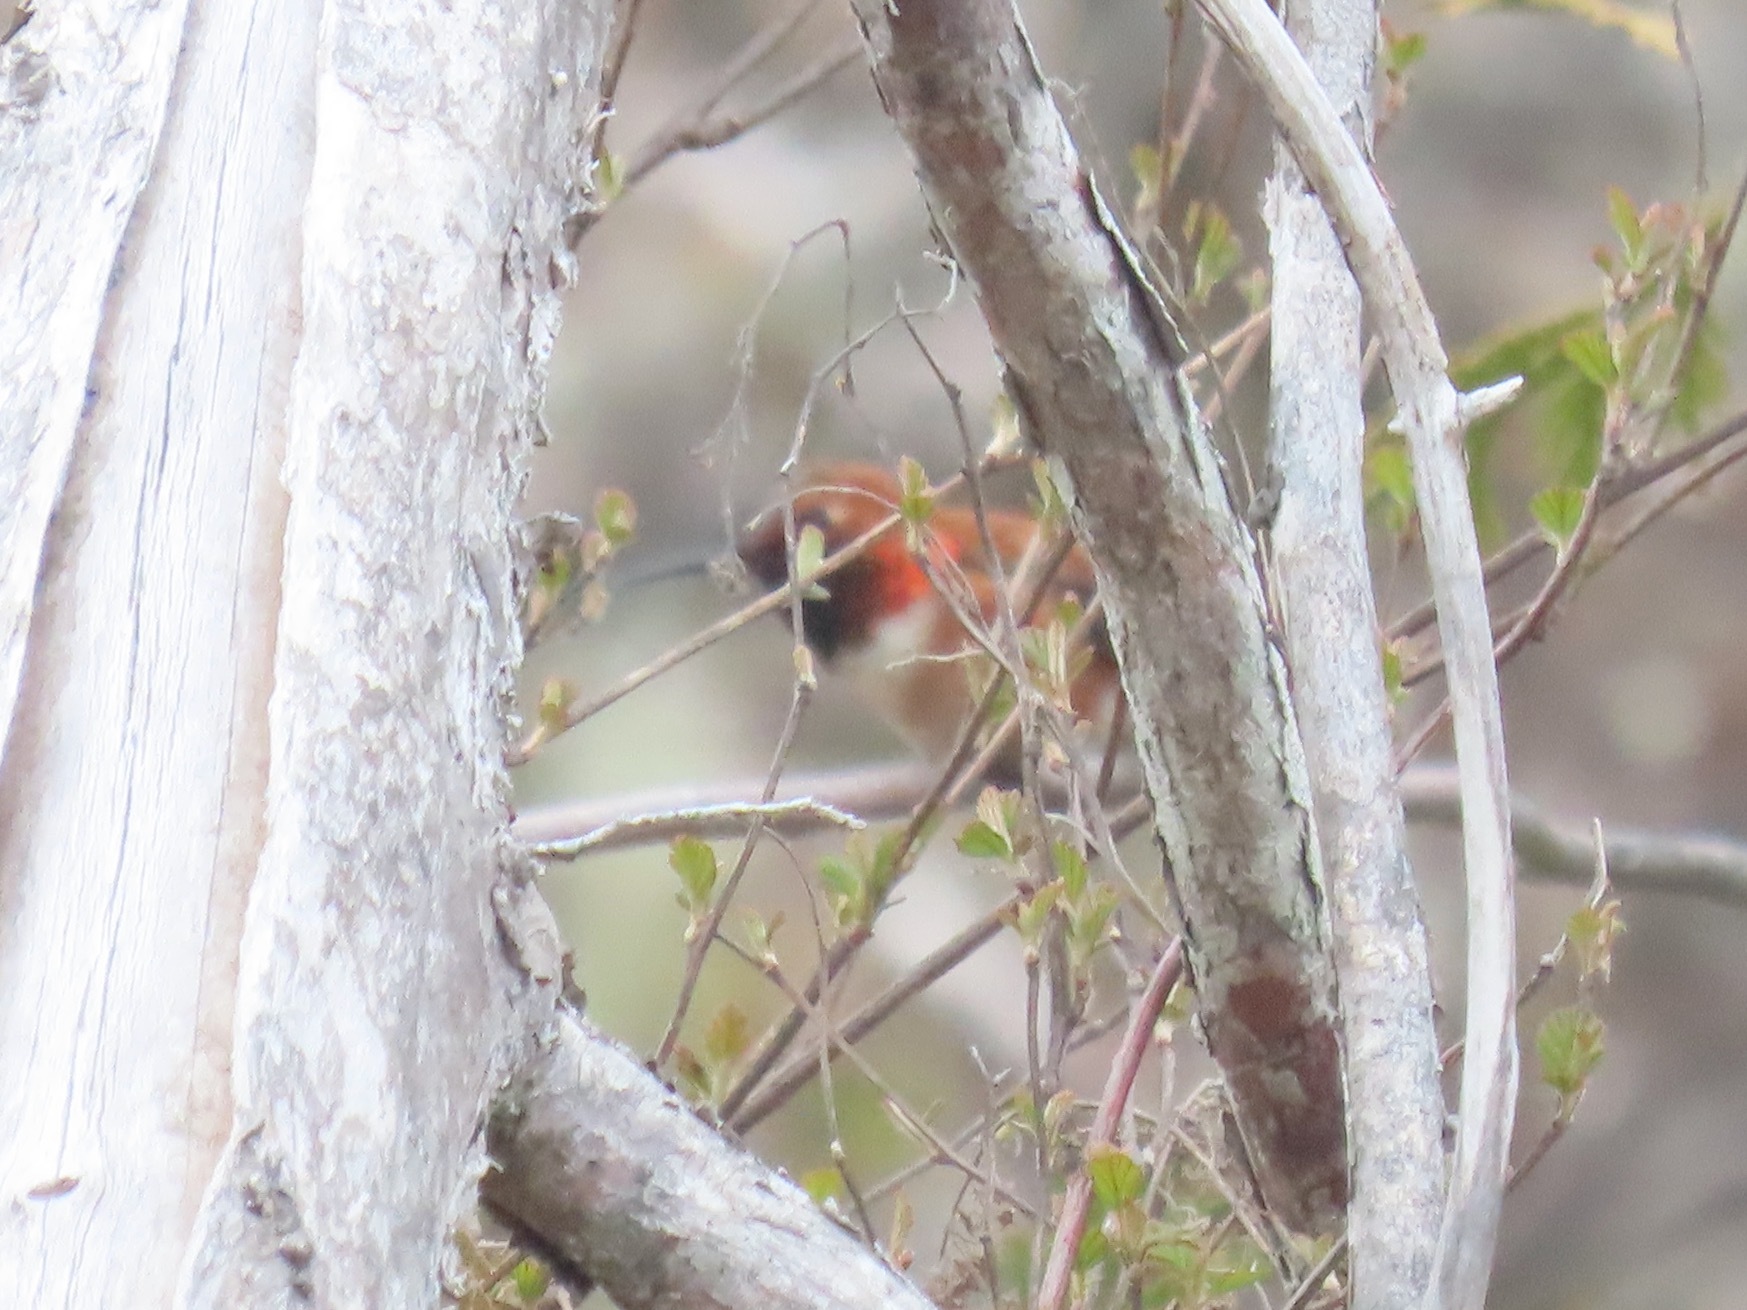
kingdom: Animalia
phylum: Chordata
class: Aves
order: Apodiformes
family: Trochilidae
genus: Selasphorus
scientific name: Selasphorus rufus
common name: Rufous hummingbird
